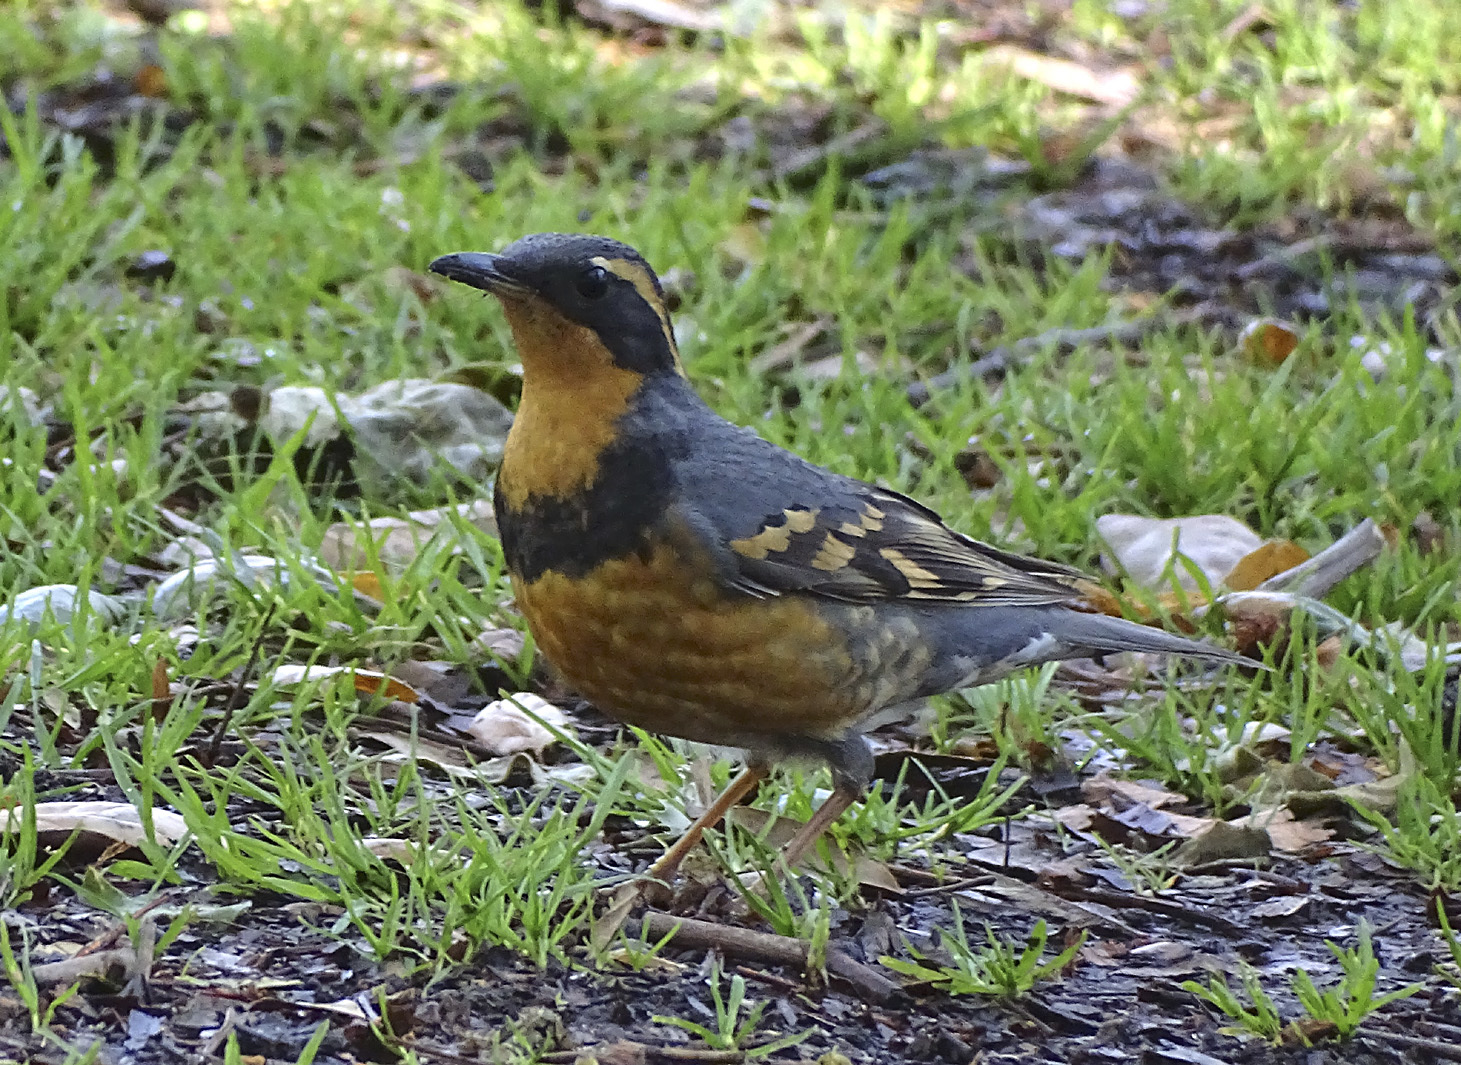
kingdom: Animalia
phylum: Chordata
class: Aves
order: Passeriformes
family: Turdidae
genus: Ixoreus
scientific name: Ixoreus naevius
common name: Varied thrush
